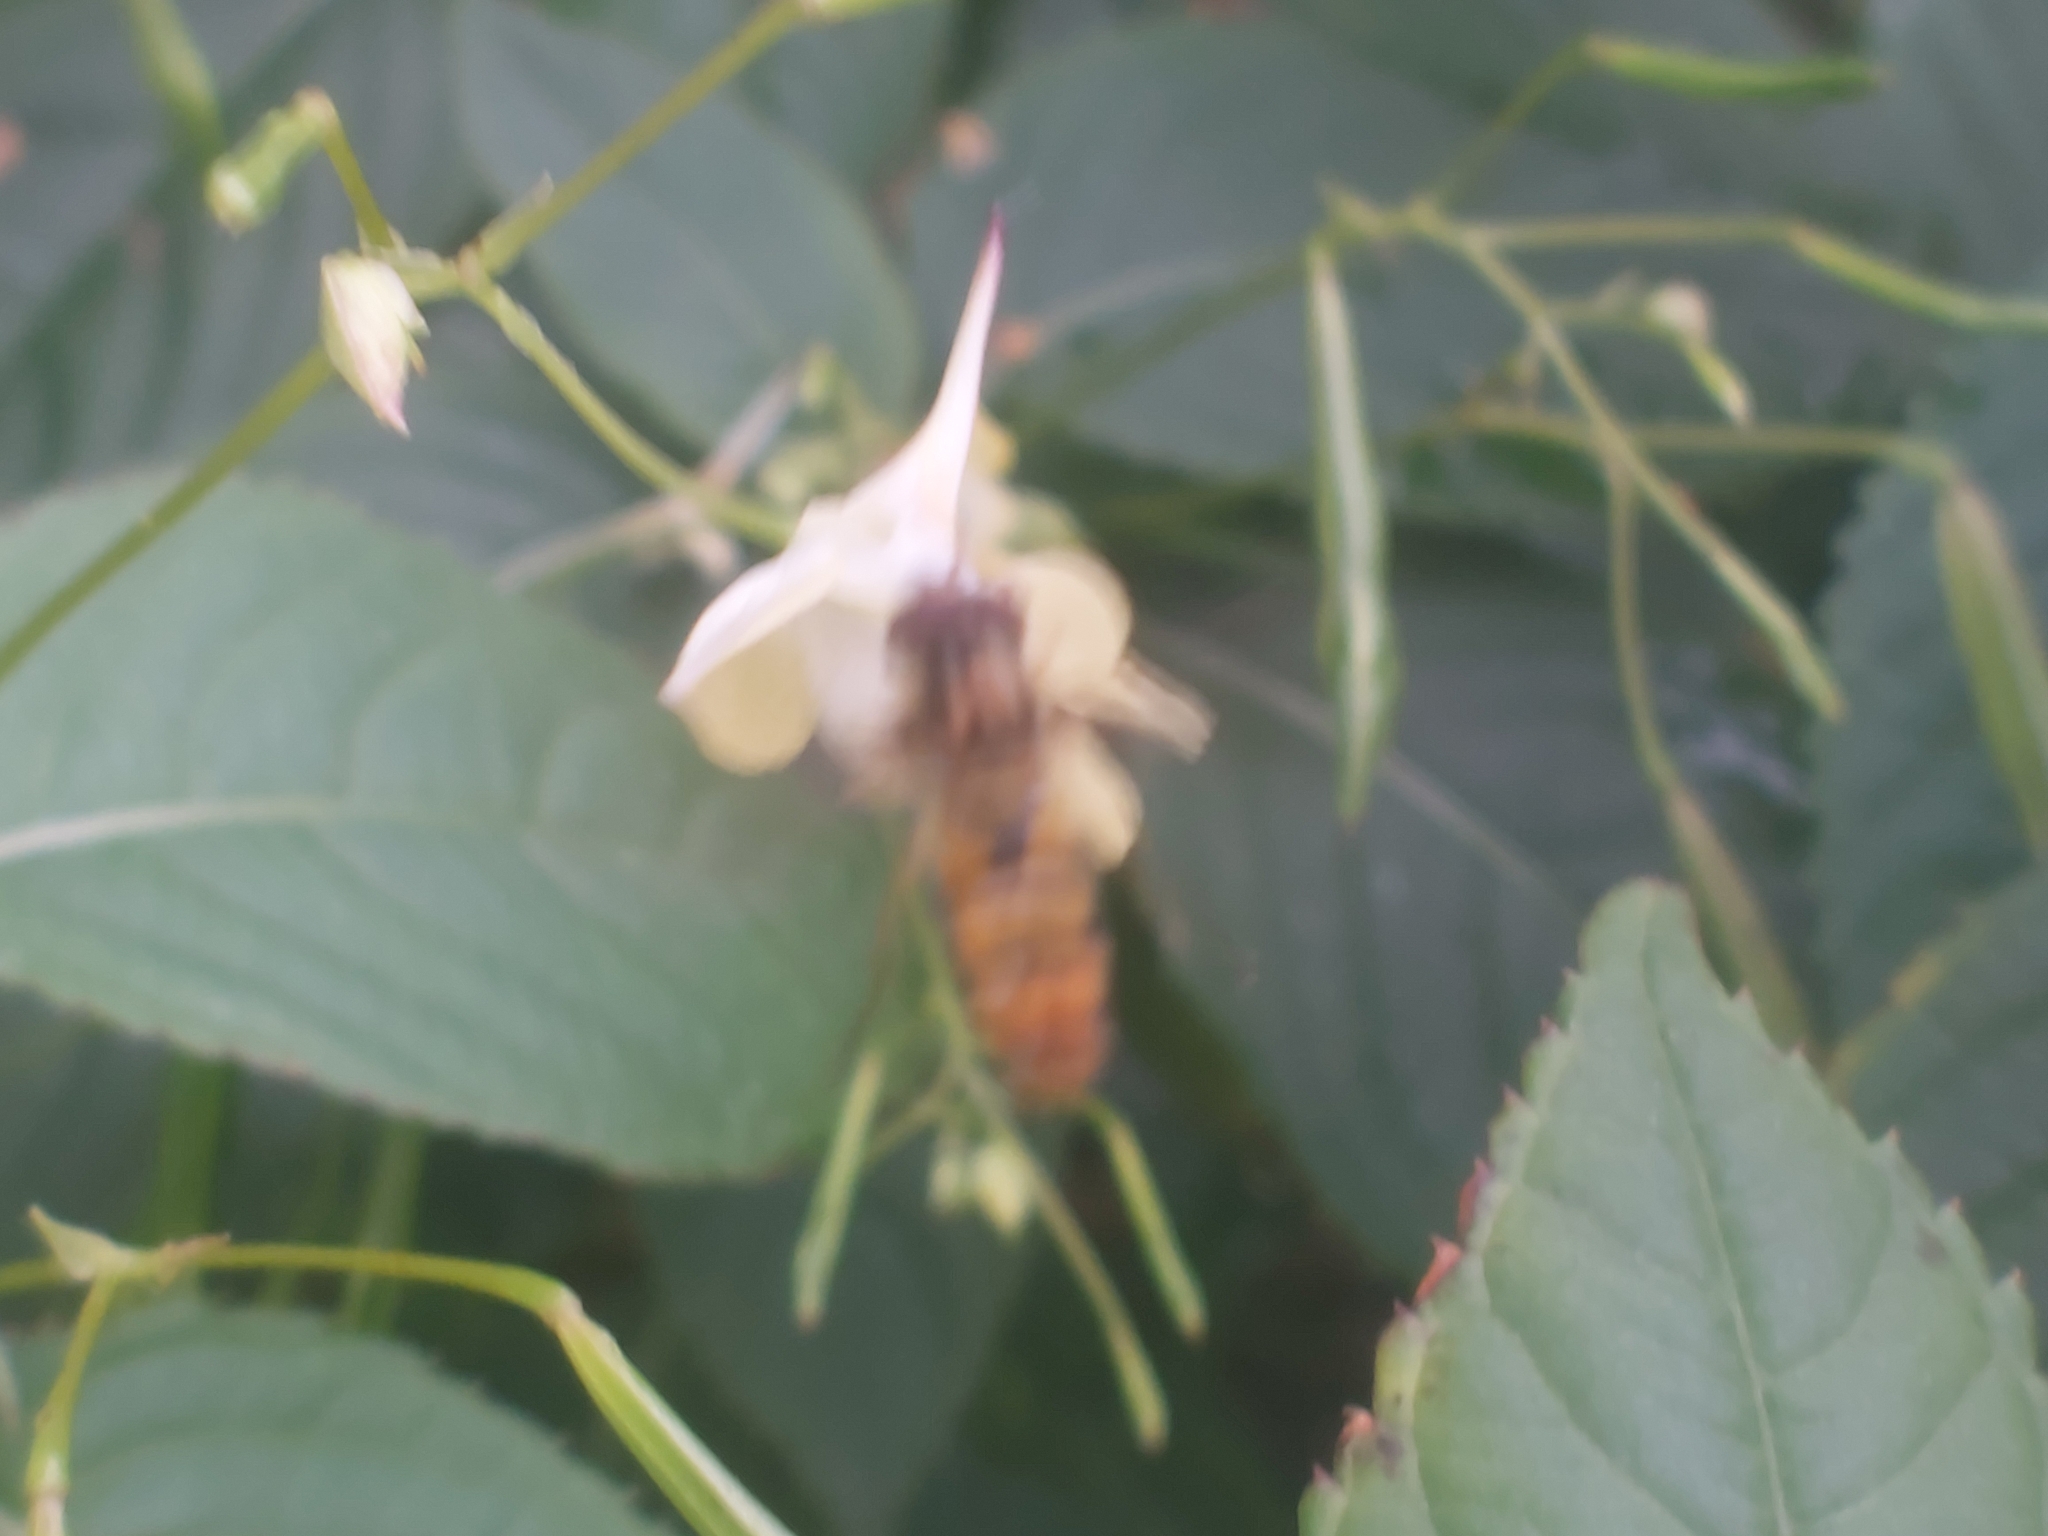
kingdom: Animalia
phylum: Arthropoda
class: Insecta
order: Diptera
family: Syrphidae
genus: Episyrphus
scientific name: Episyrphus balteatus
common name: Marmalade hoverfly
